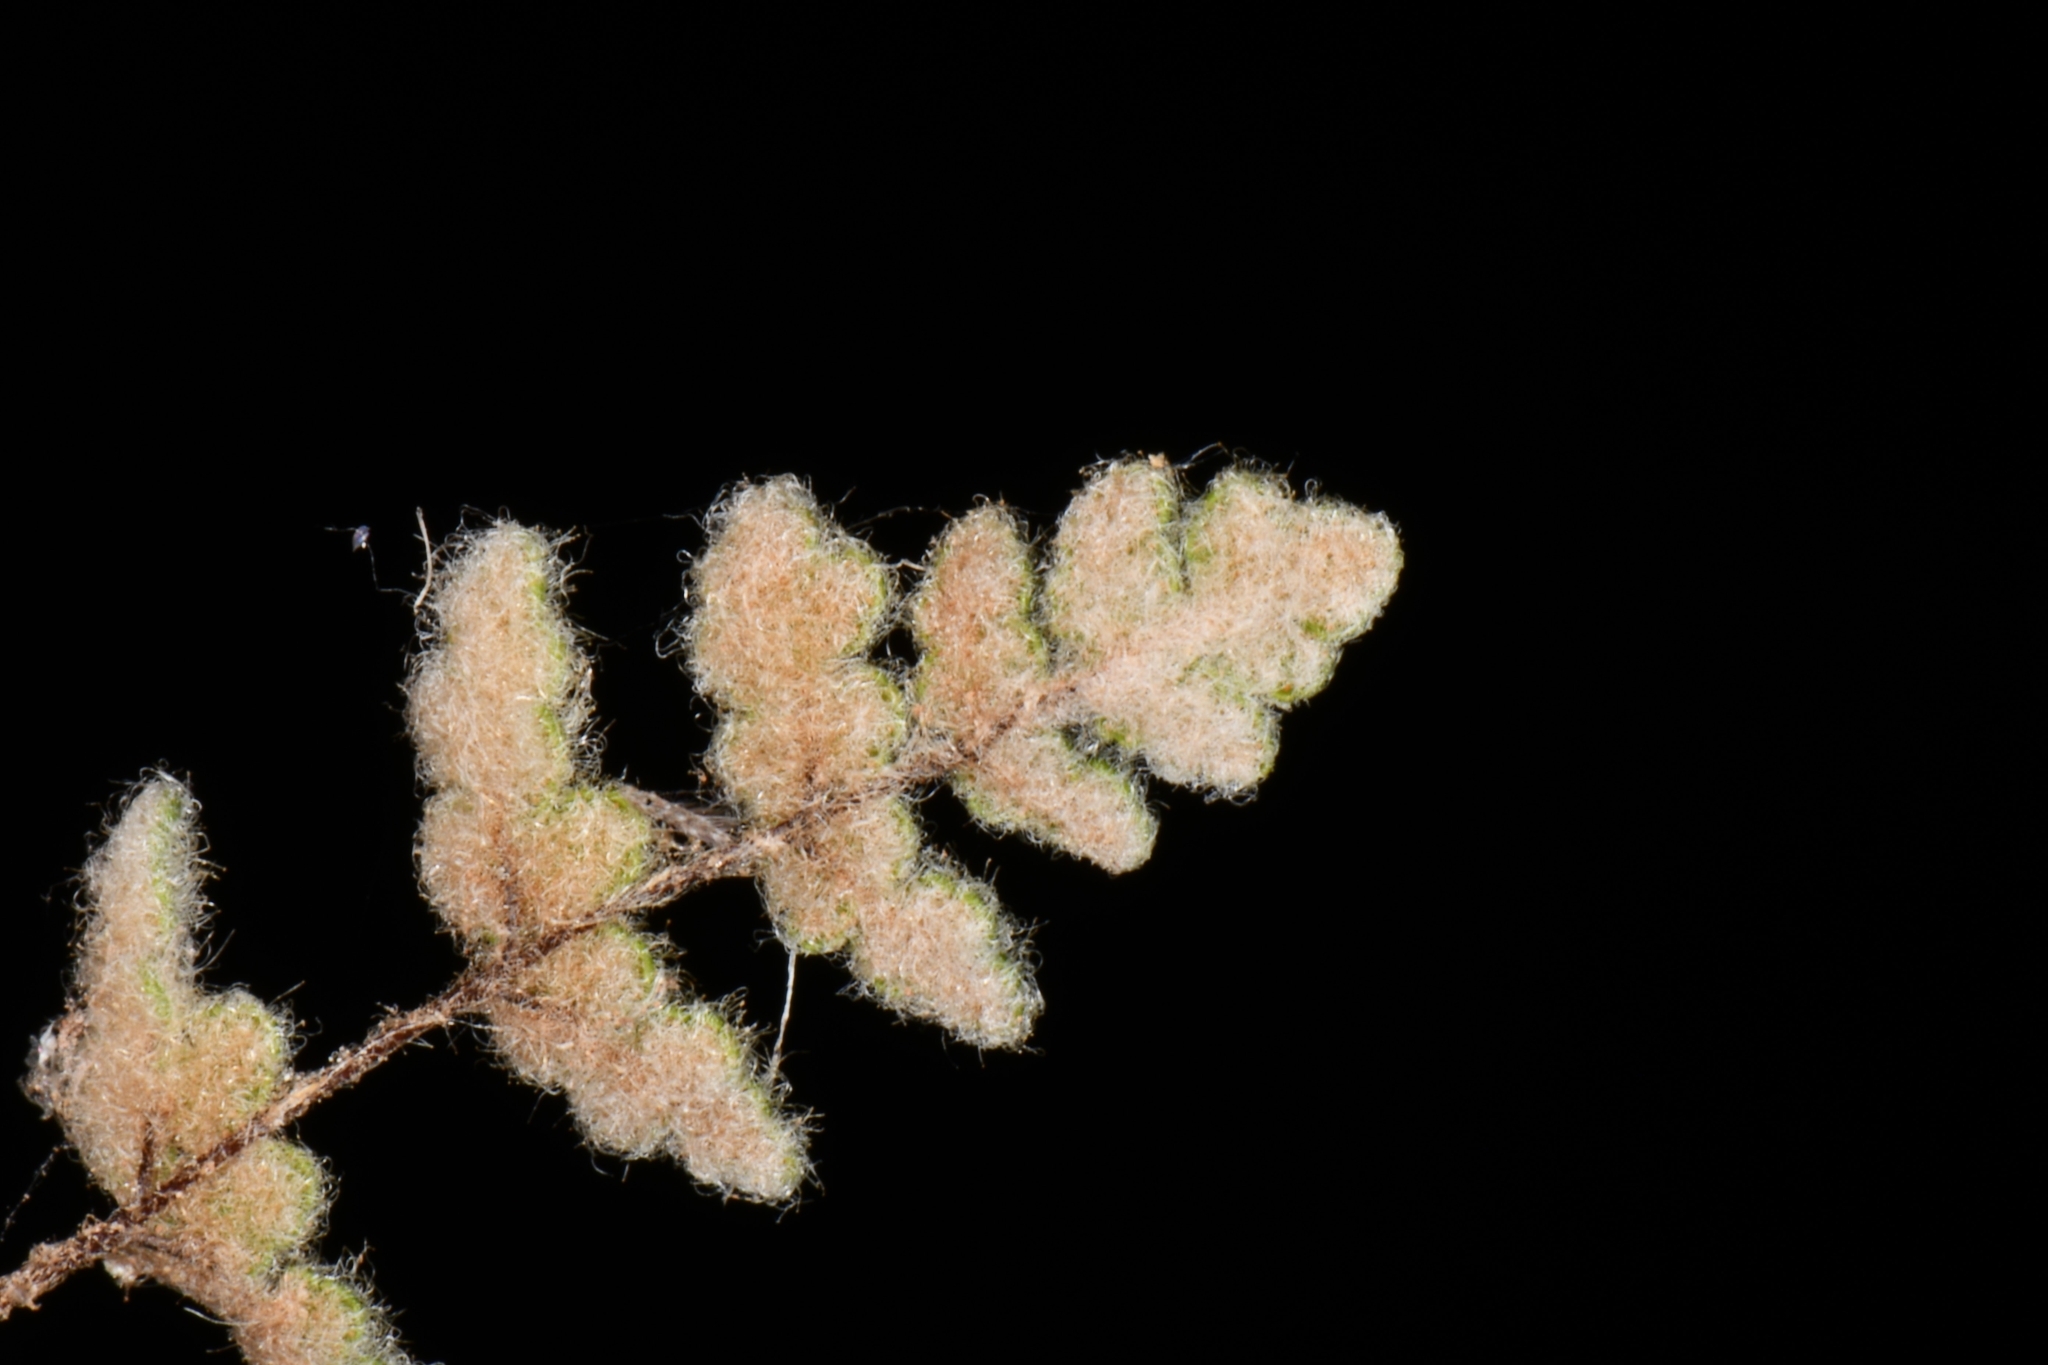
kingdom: Plantae
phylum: Tracheophyta
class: Polypodiopsida
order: Polypodiales
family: Pteridaceae
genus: Myriopteris
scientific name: Myriopteris parryi
